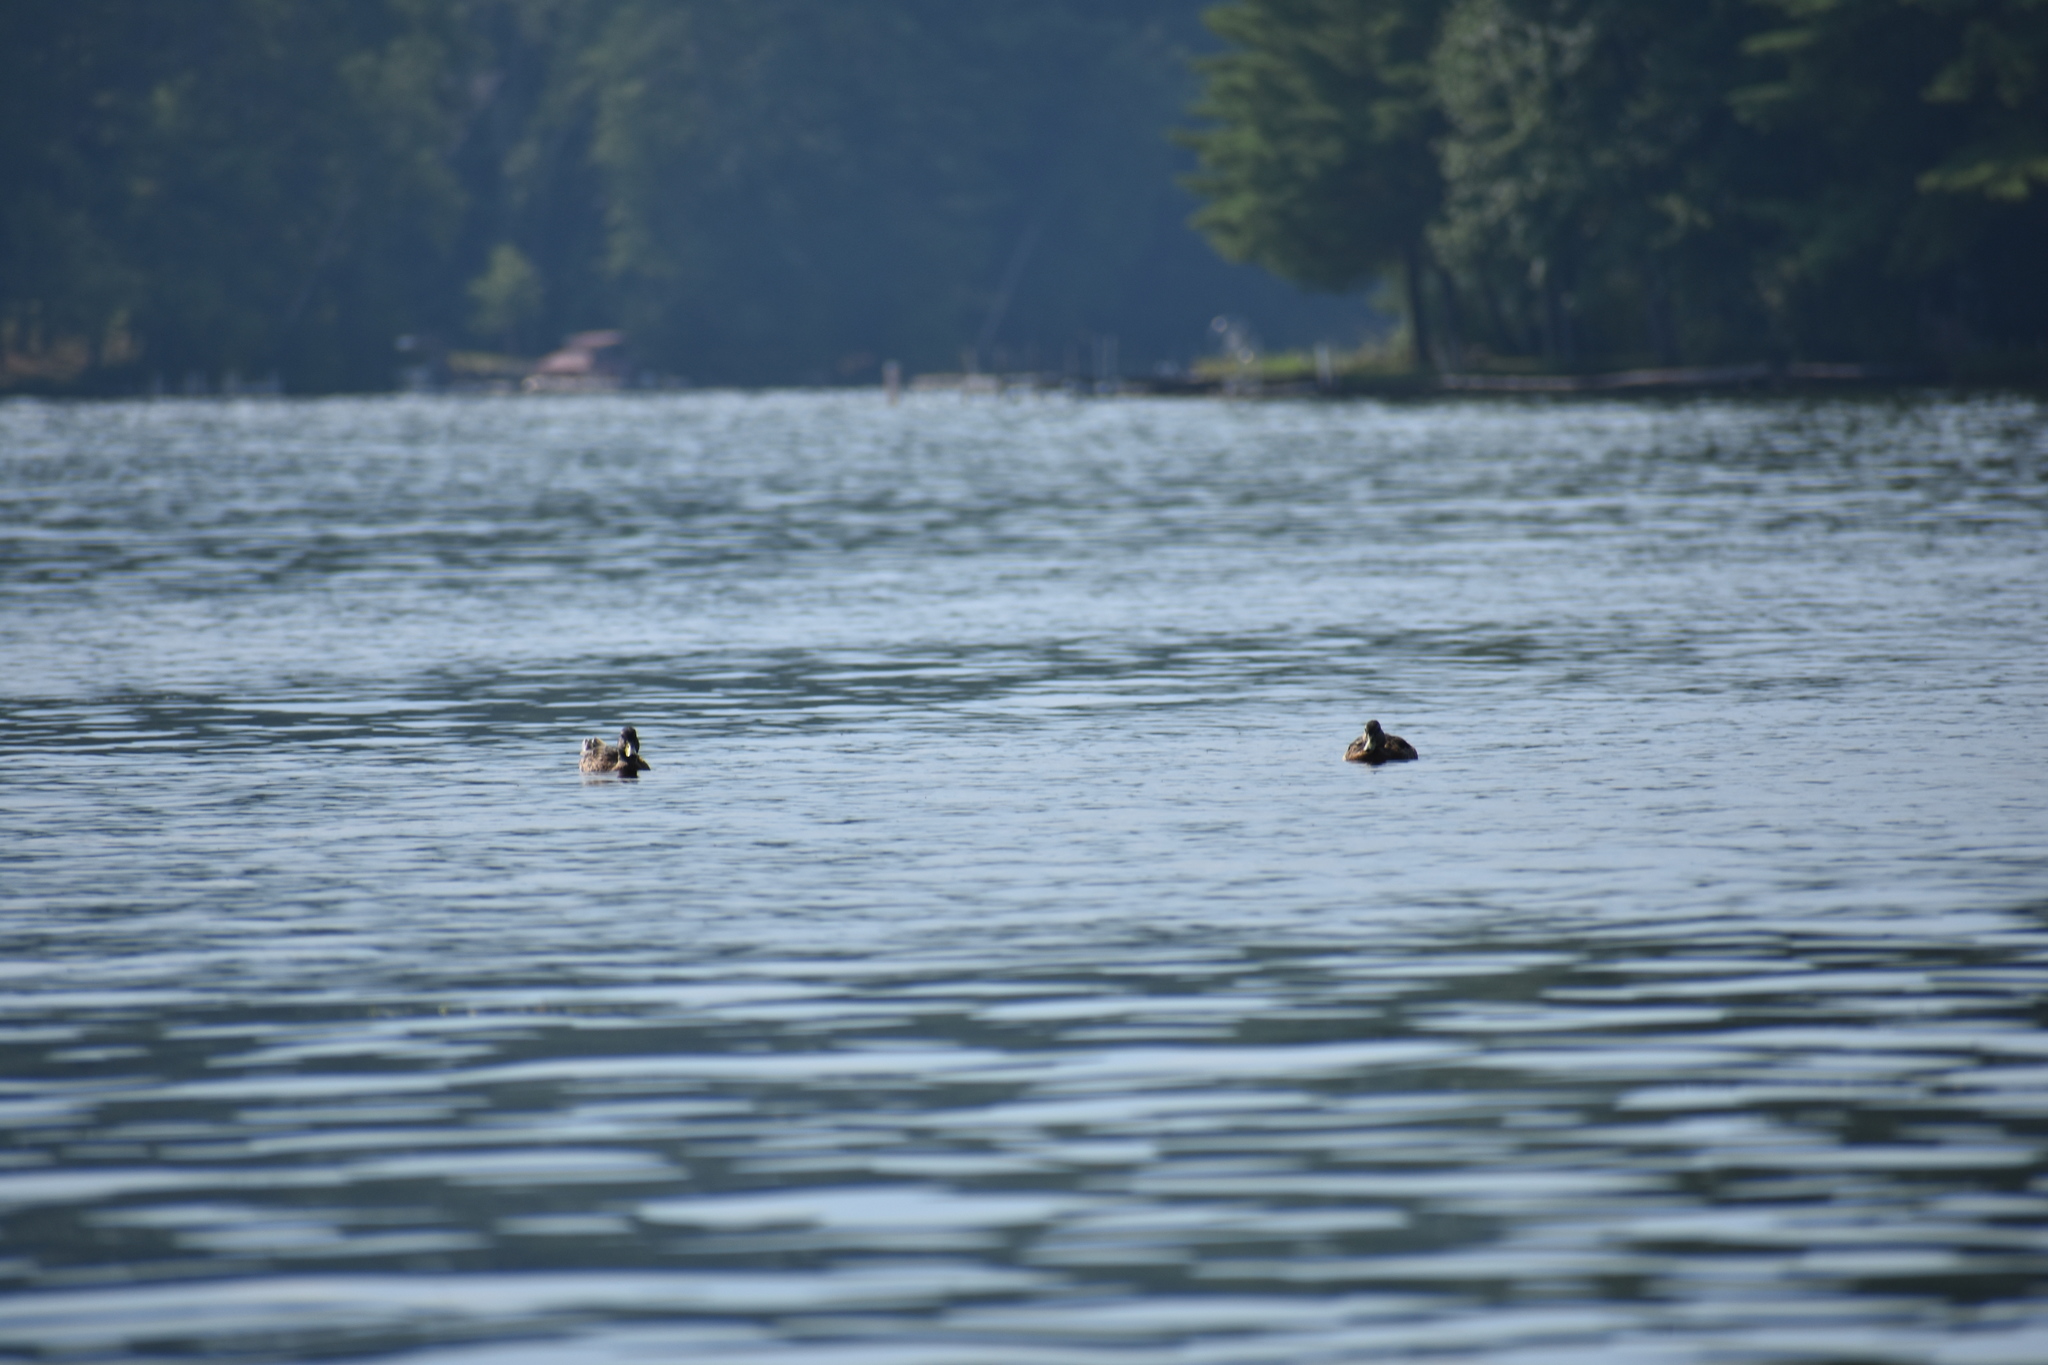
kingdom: Animalia
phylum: Chordata
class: Aves
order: Anseriformes
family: Anatidae
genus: Anas
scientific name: Anas platyrhynchos
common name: Mallard
